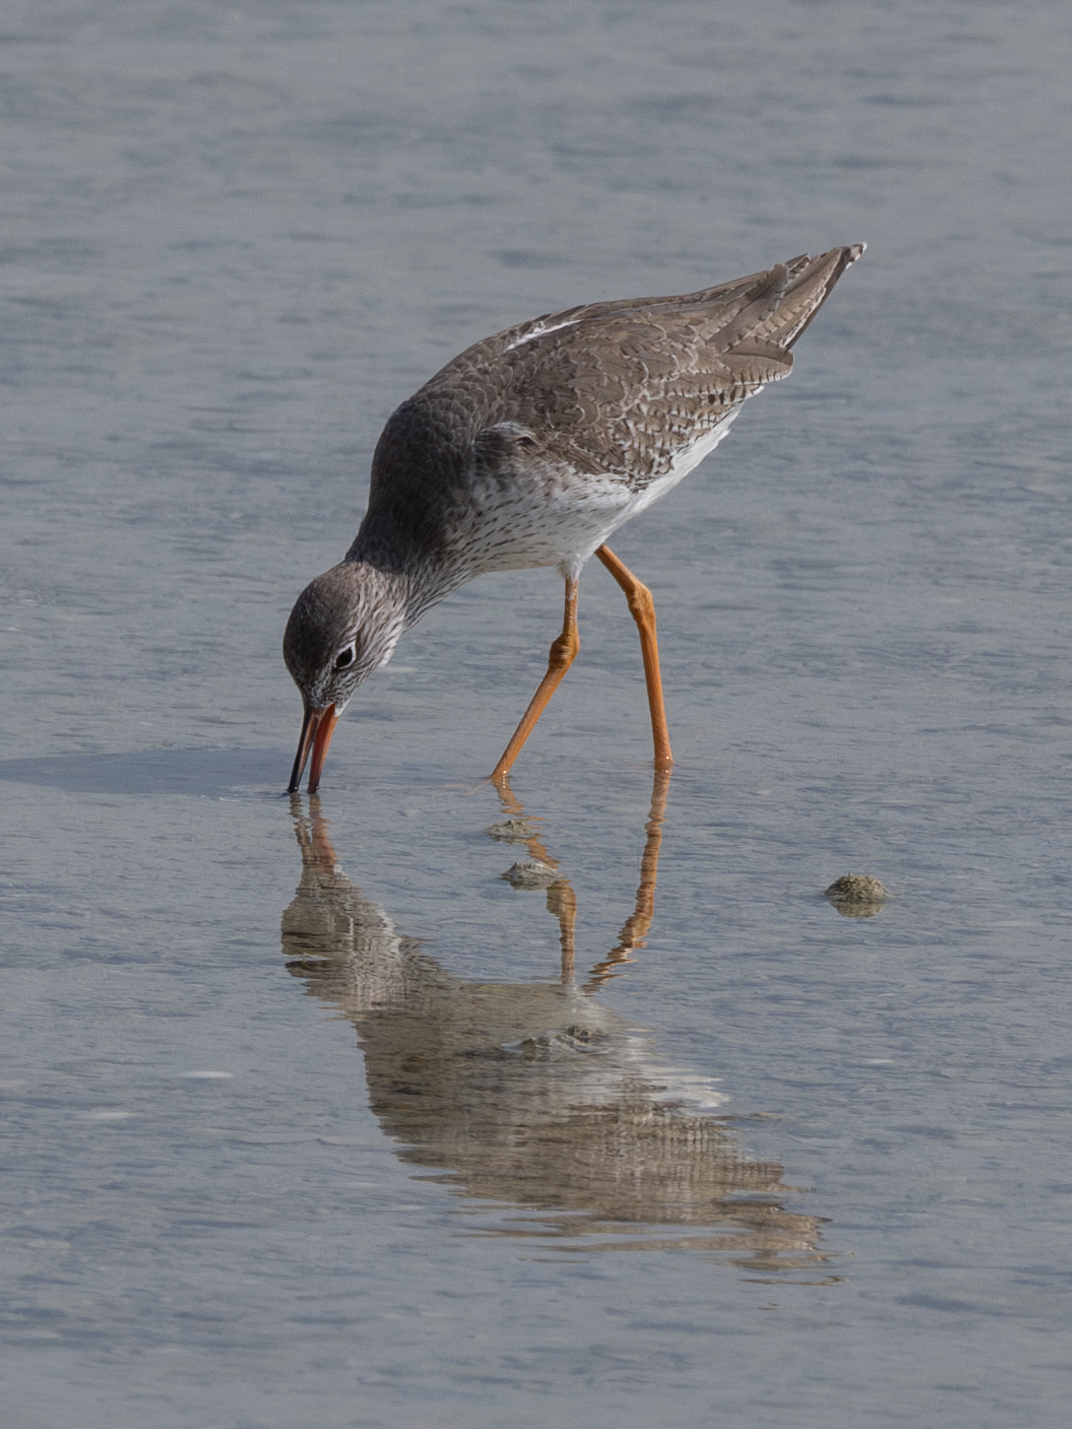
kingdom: Animalia
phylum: Chordata
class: Aves
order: Charadriiformes
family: Scolopacidae
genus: Tringa
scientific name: Tringa totanus
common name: Common redshank
